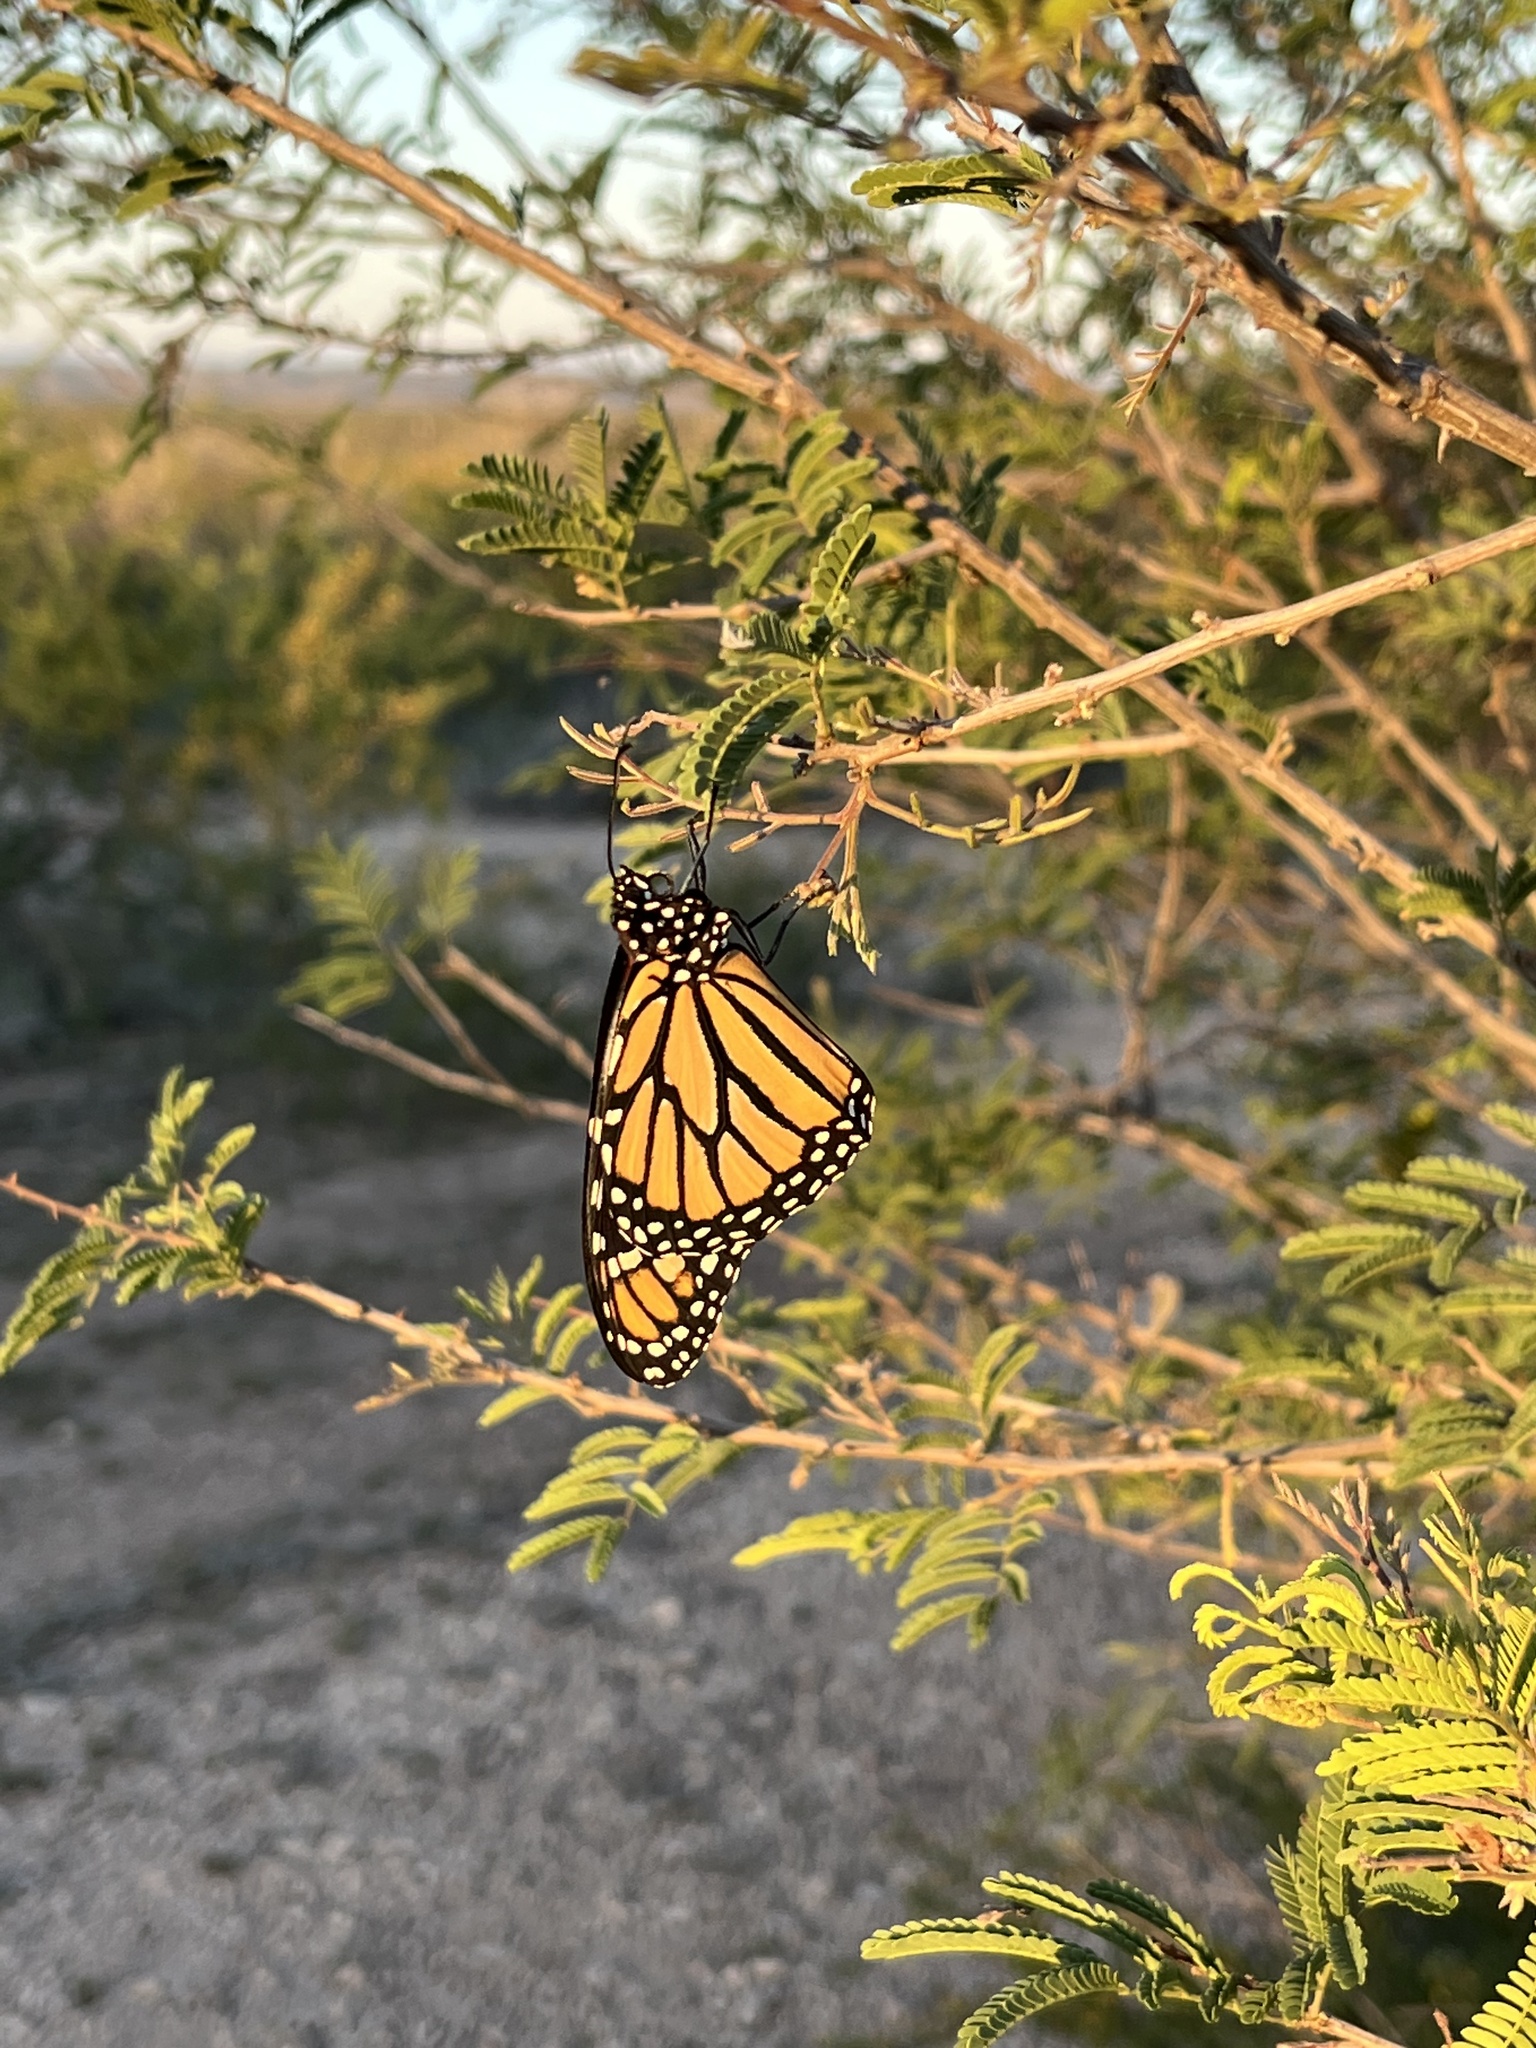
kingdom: Animalia
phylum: Arthropoda
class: Insecta
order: Lepidoptera
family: Nymphalidae
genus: Danaus
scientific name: Danaus plexippus
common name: Monarch
